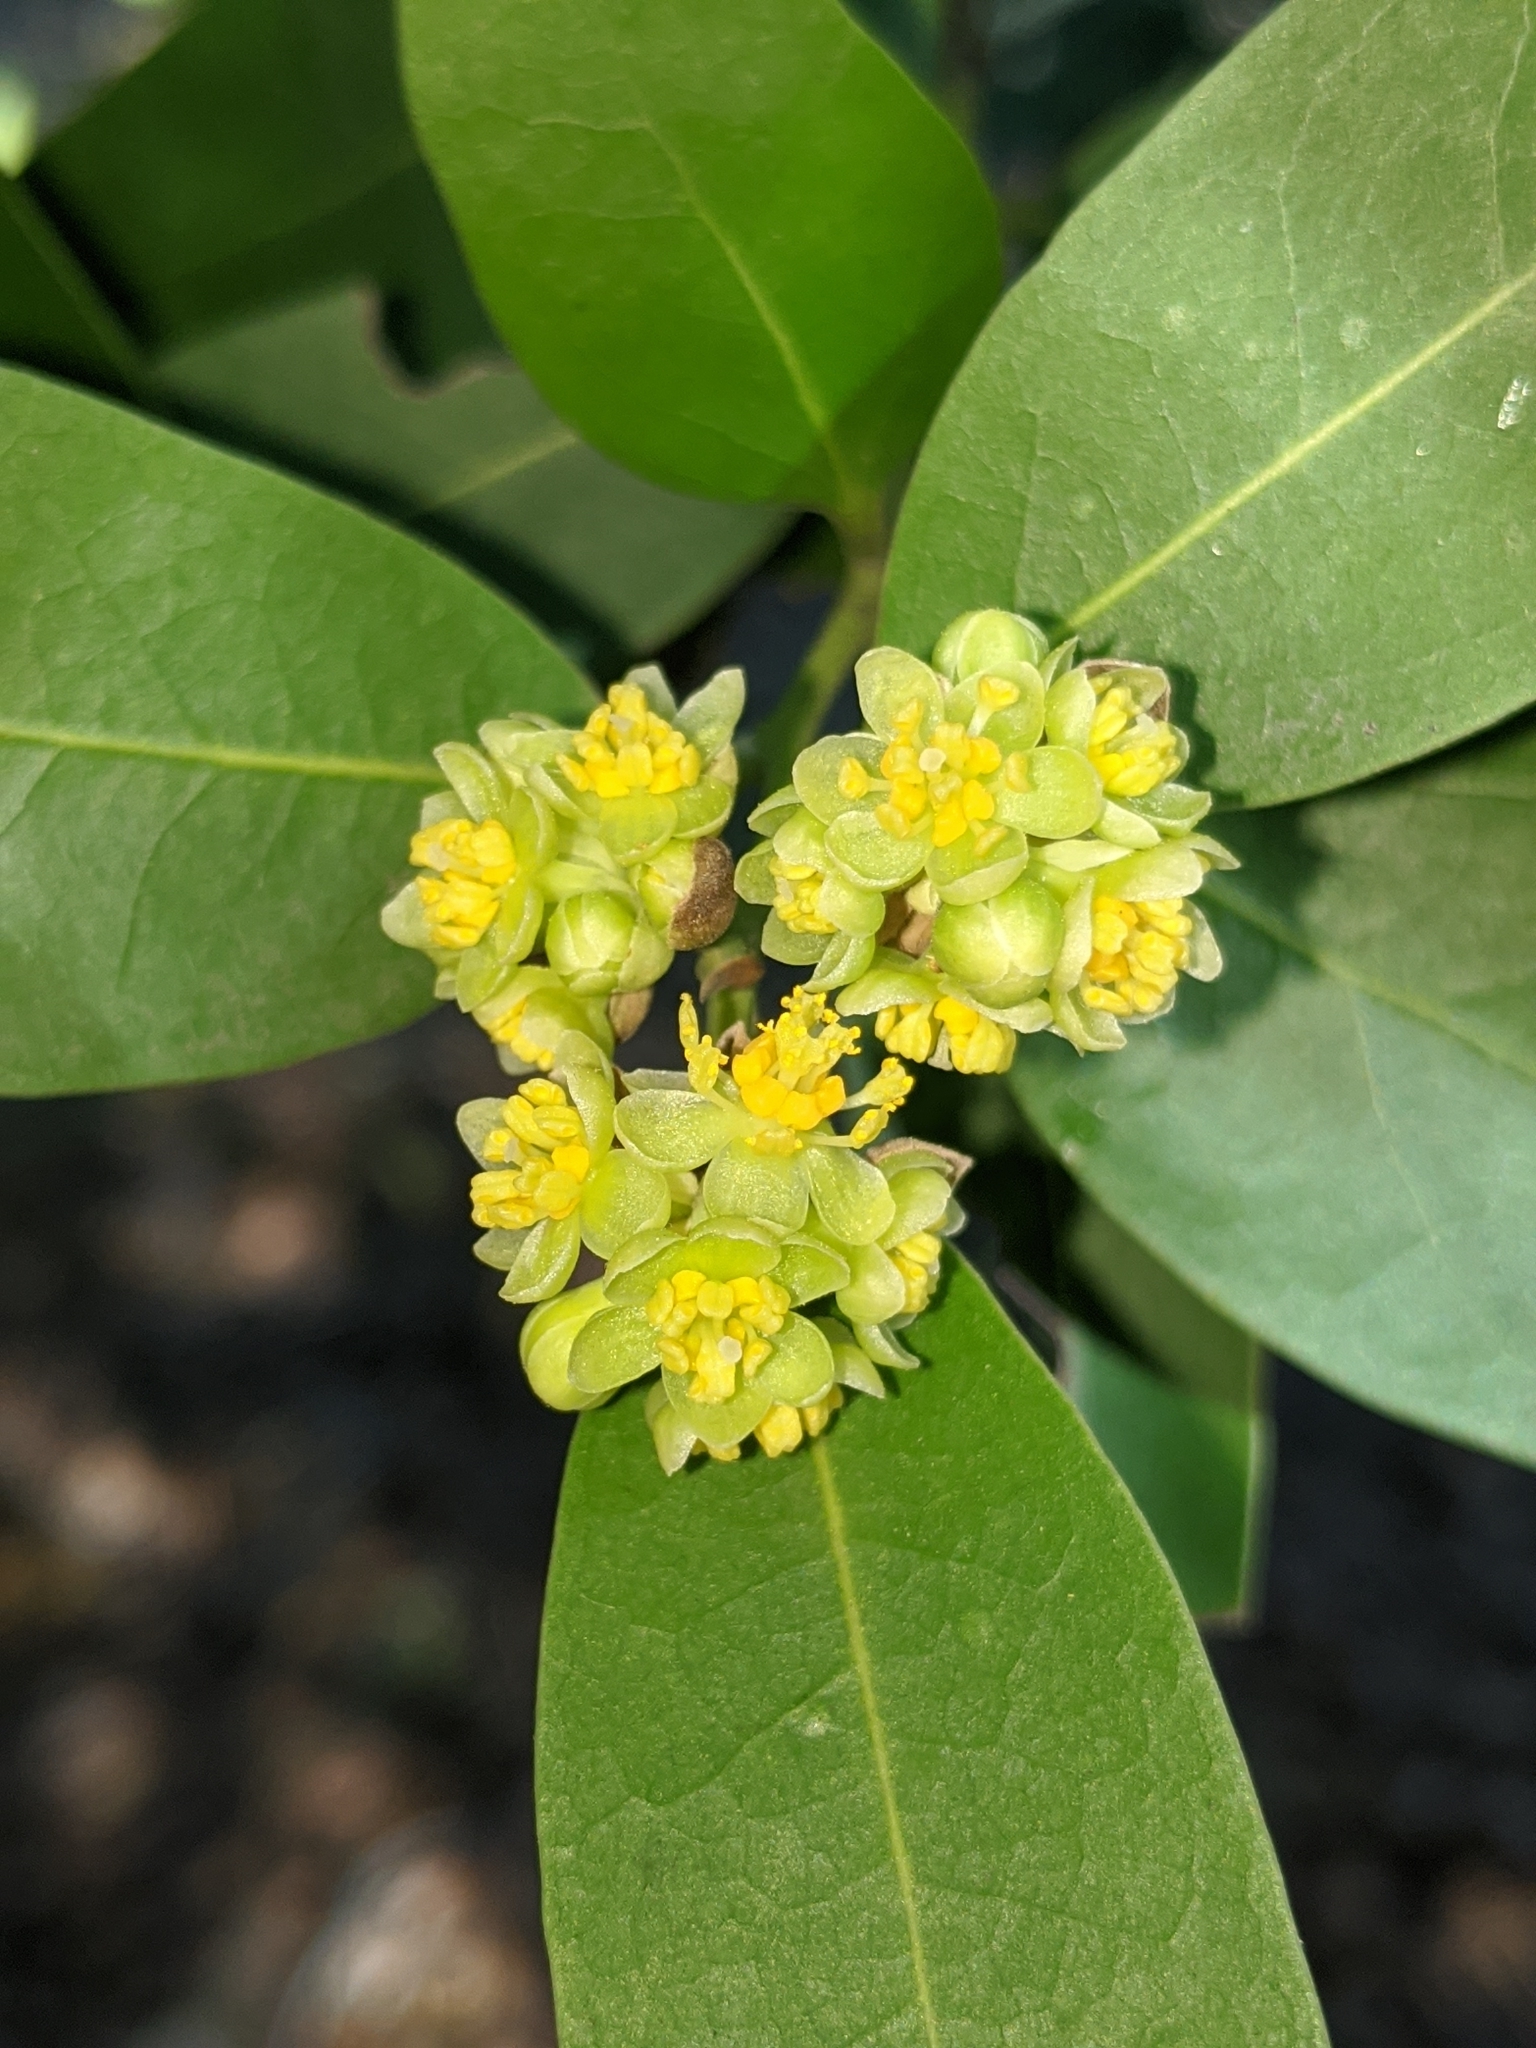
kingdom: Plantae
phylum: Tracheophyta
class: Magnoliopsida
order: Laurales
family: Lauraceae
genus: Umbellularia
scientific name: Umbellularia californica
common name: California bay
